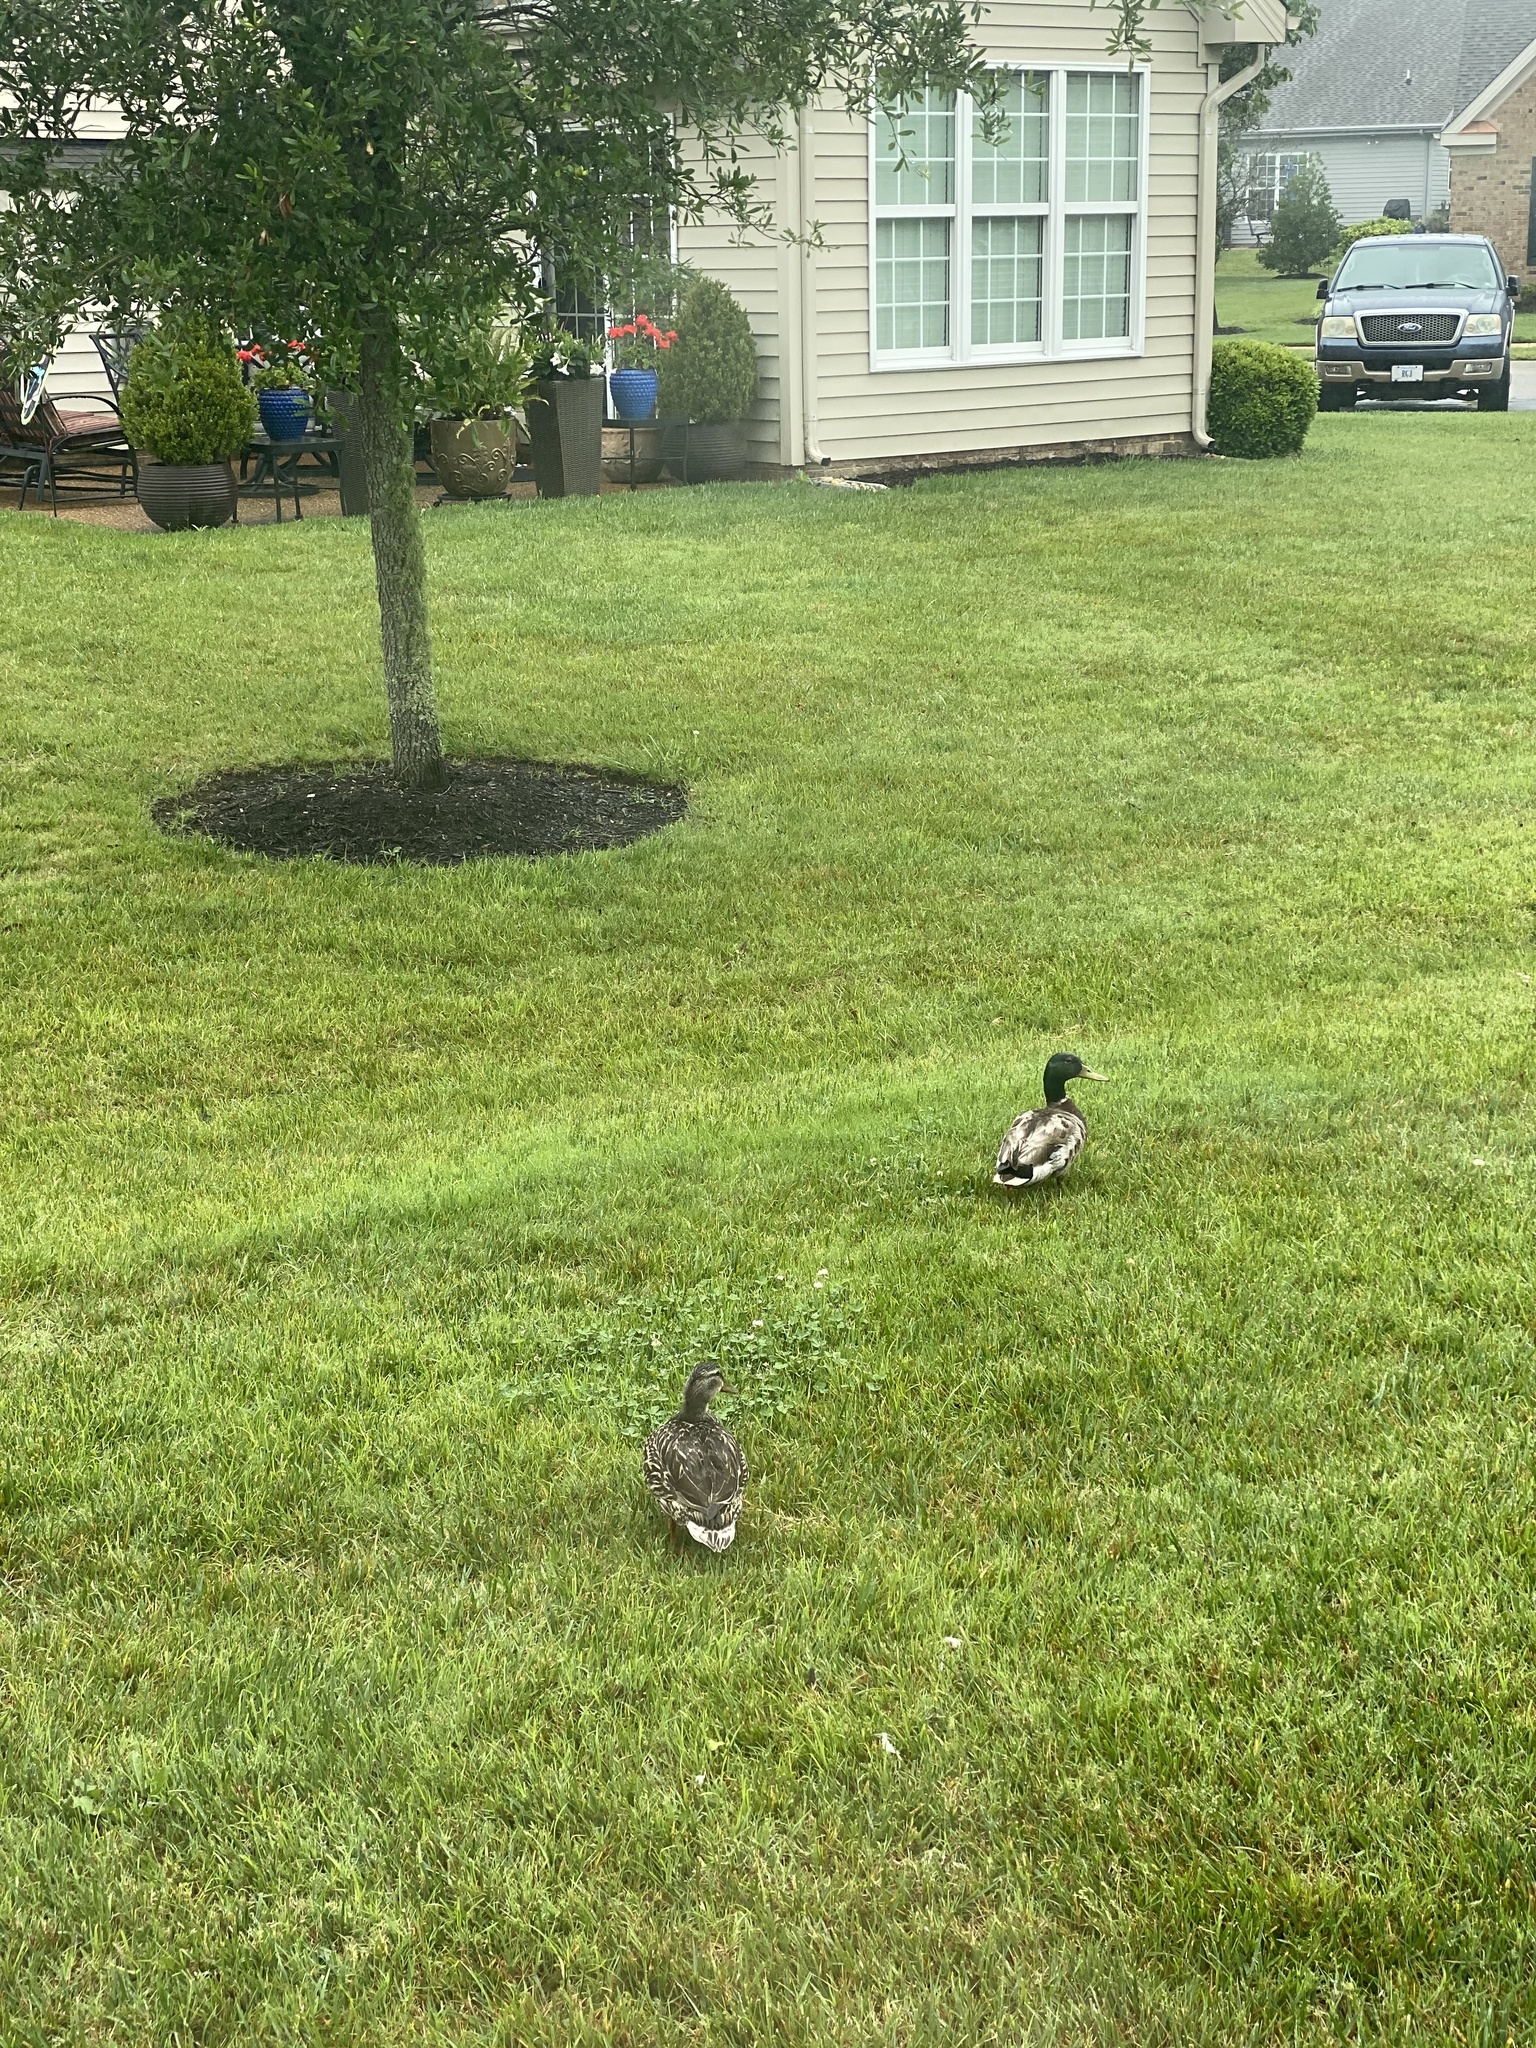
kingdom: Animalia
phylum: Chordata
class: Aves
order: Anseriformes
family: Anatidae
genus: Anas
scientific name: Anas platyrhynchos
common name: Mallard
